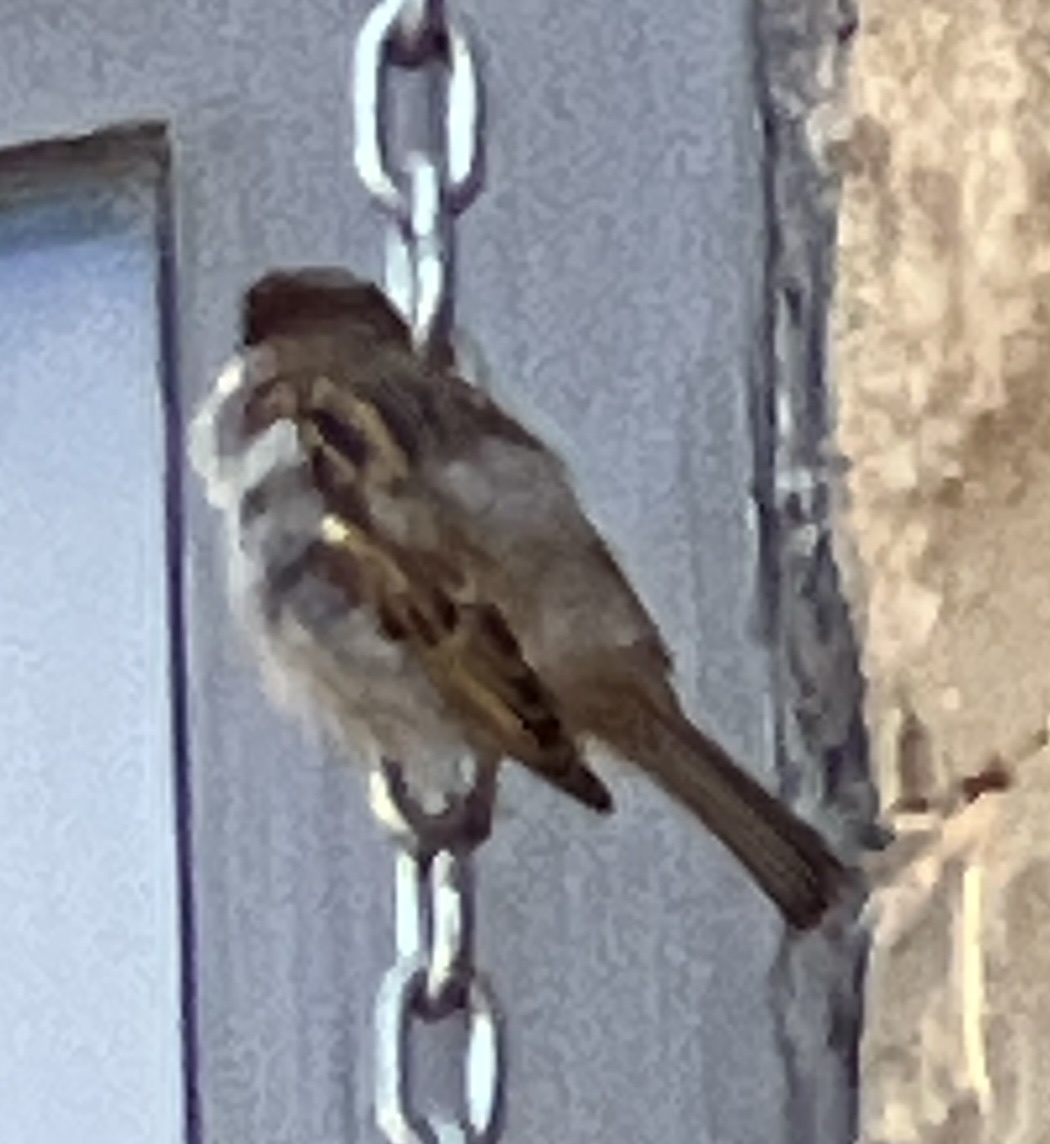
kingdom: Animalia
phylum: Chordata
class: Aves
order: Passeriformes
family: Passeridae
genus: Passer
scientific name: Passer domesticus
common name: House sparrow
